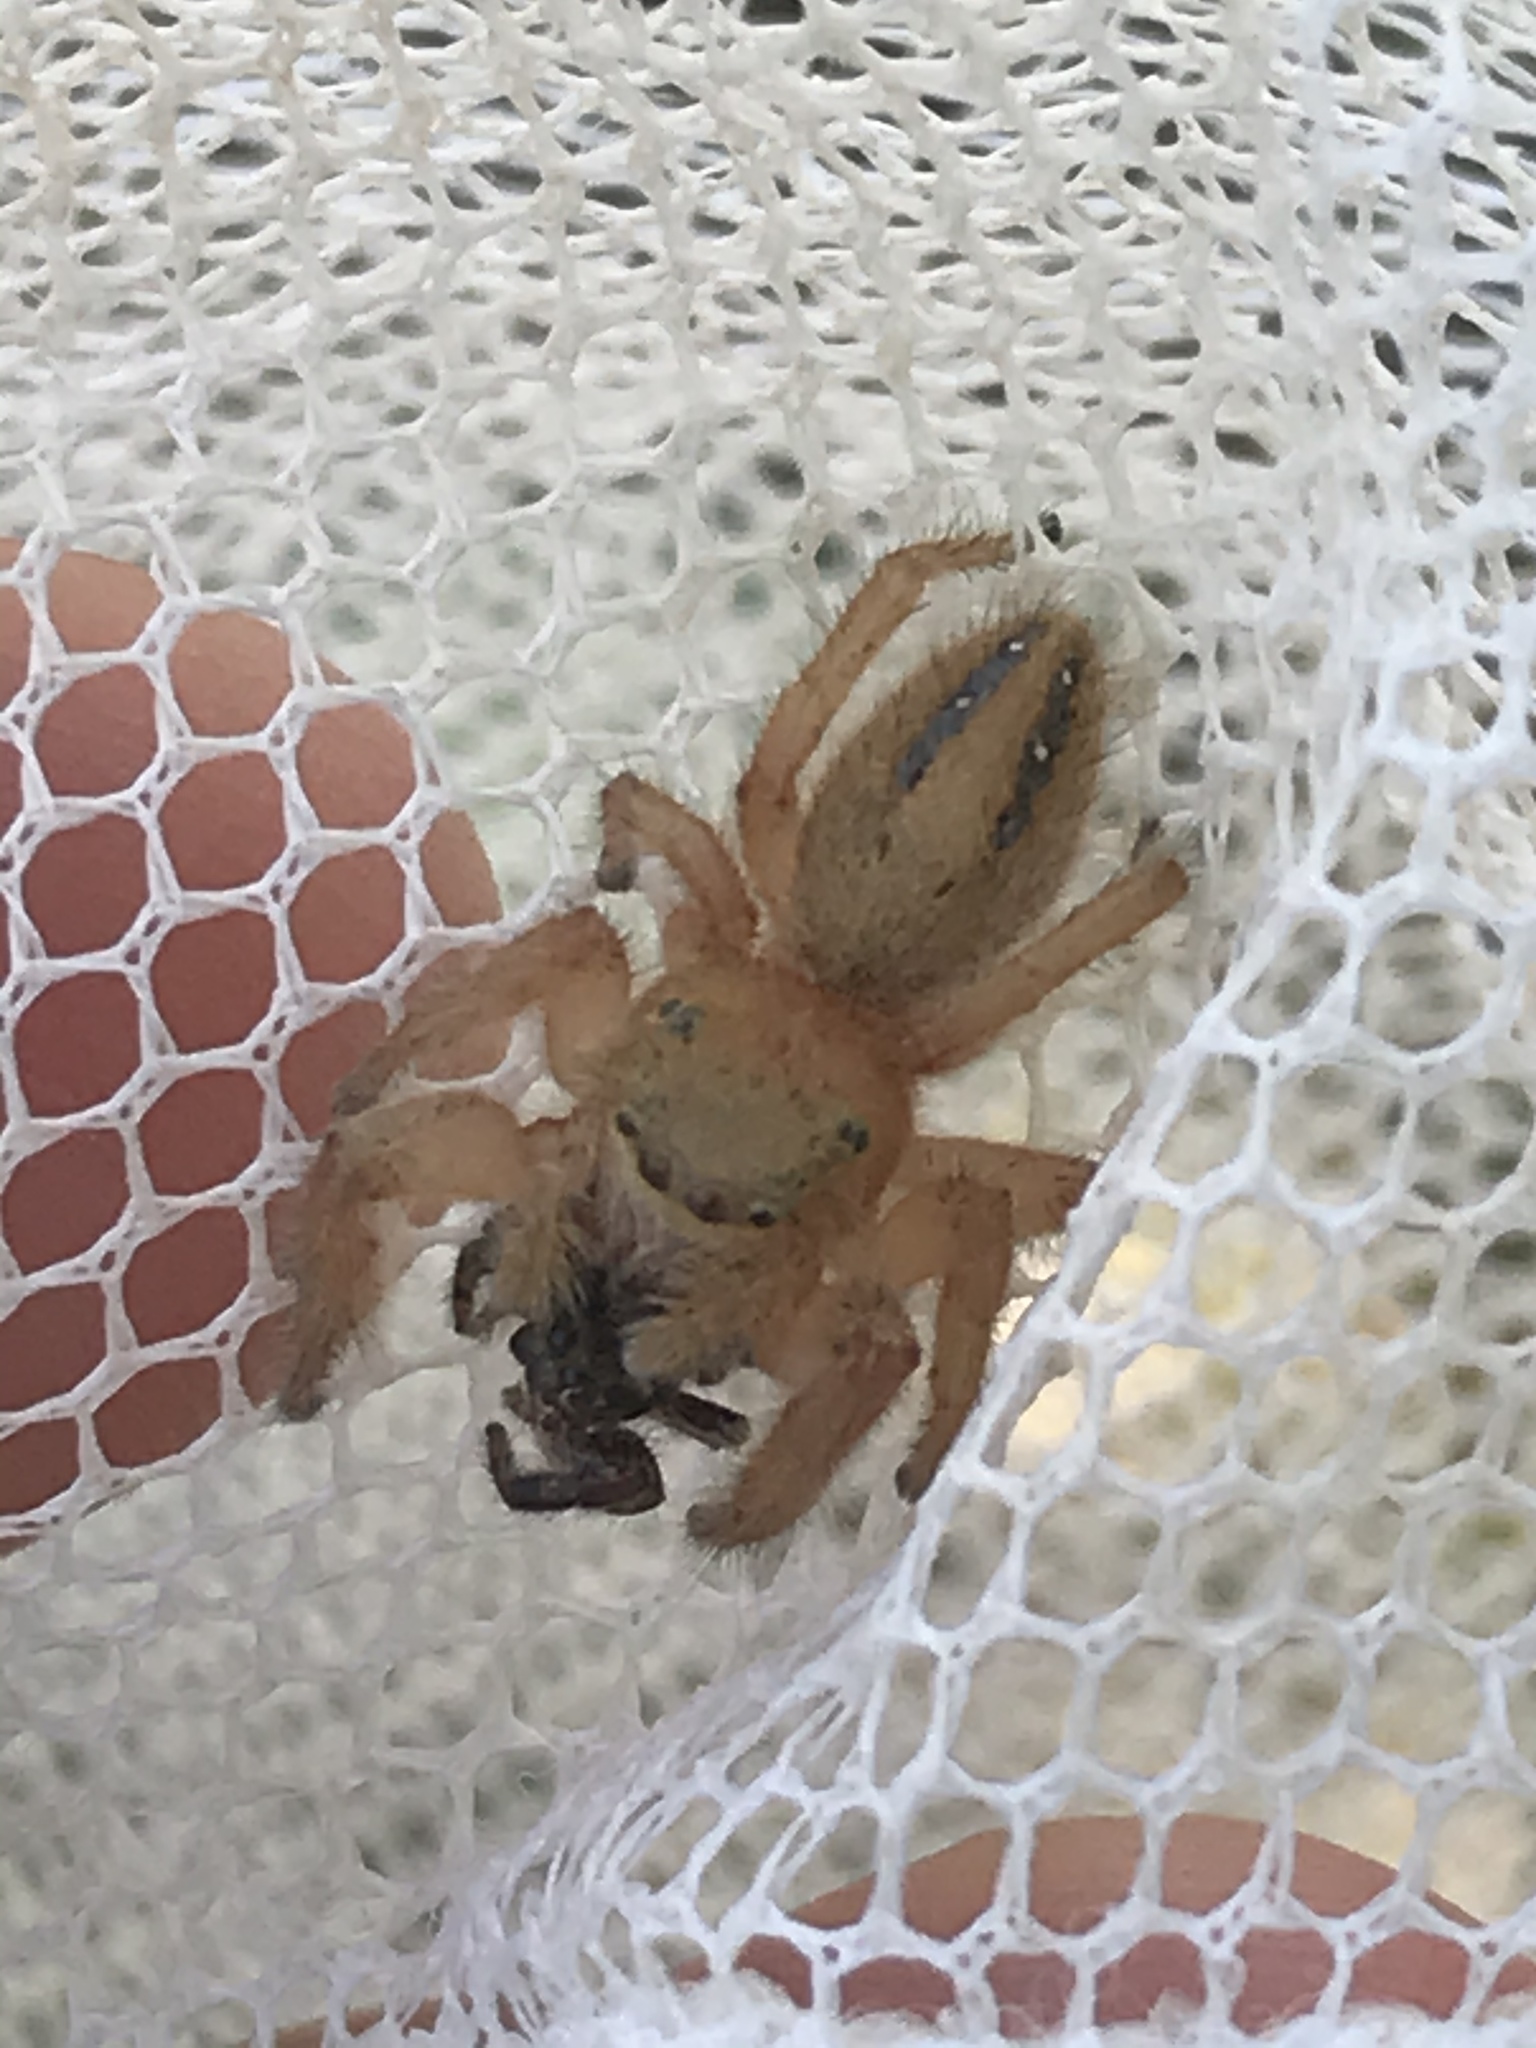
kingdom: Animalia
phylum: Arthropoda
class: Arachnida
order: Araneae
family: Salticidae
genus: Phidippus
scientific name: Phidippus pius
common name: Jumping spiders
